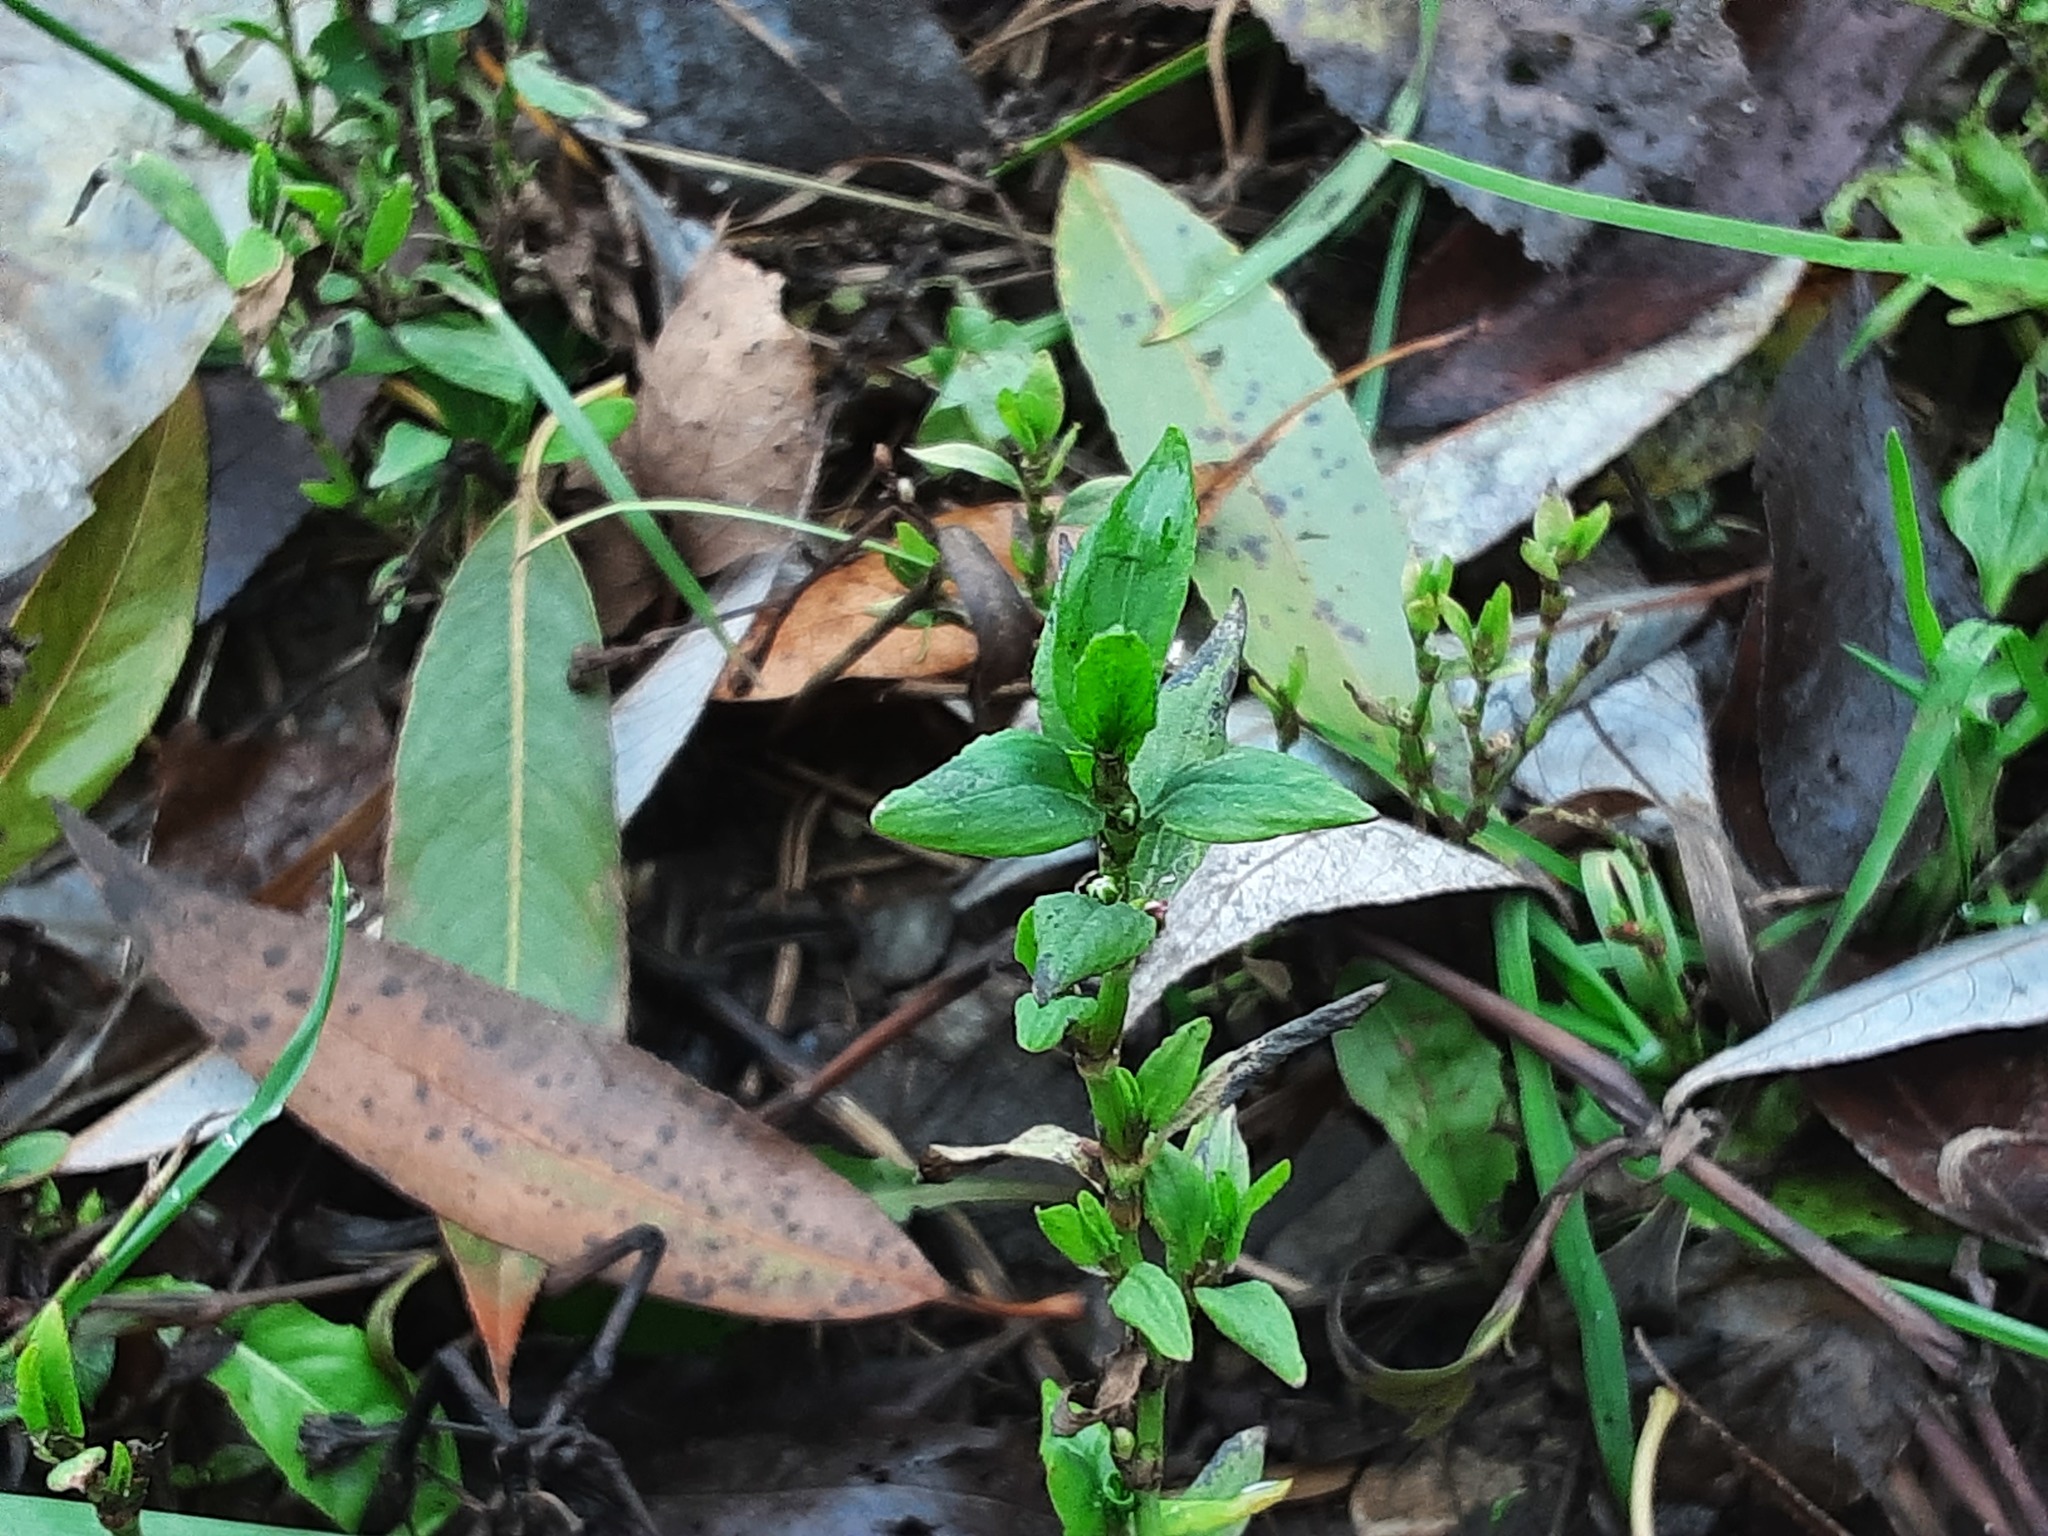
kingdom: Plantae
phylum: Tracheophyta
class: Magnoliopsida
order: Caryophyllales
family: Polygonaceae
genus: Polygonum
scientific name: Polygonum
